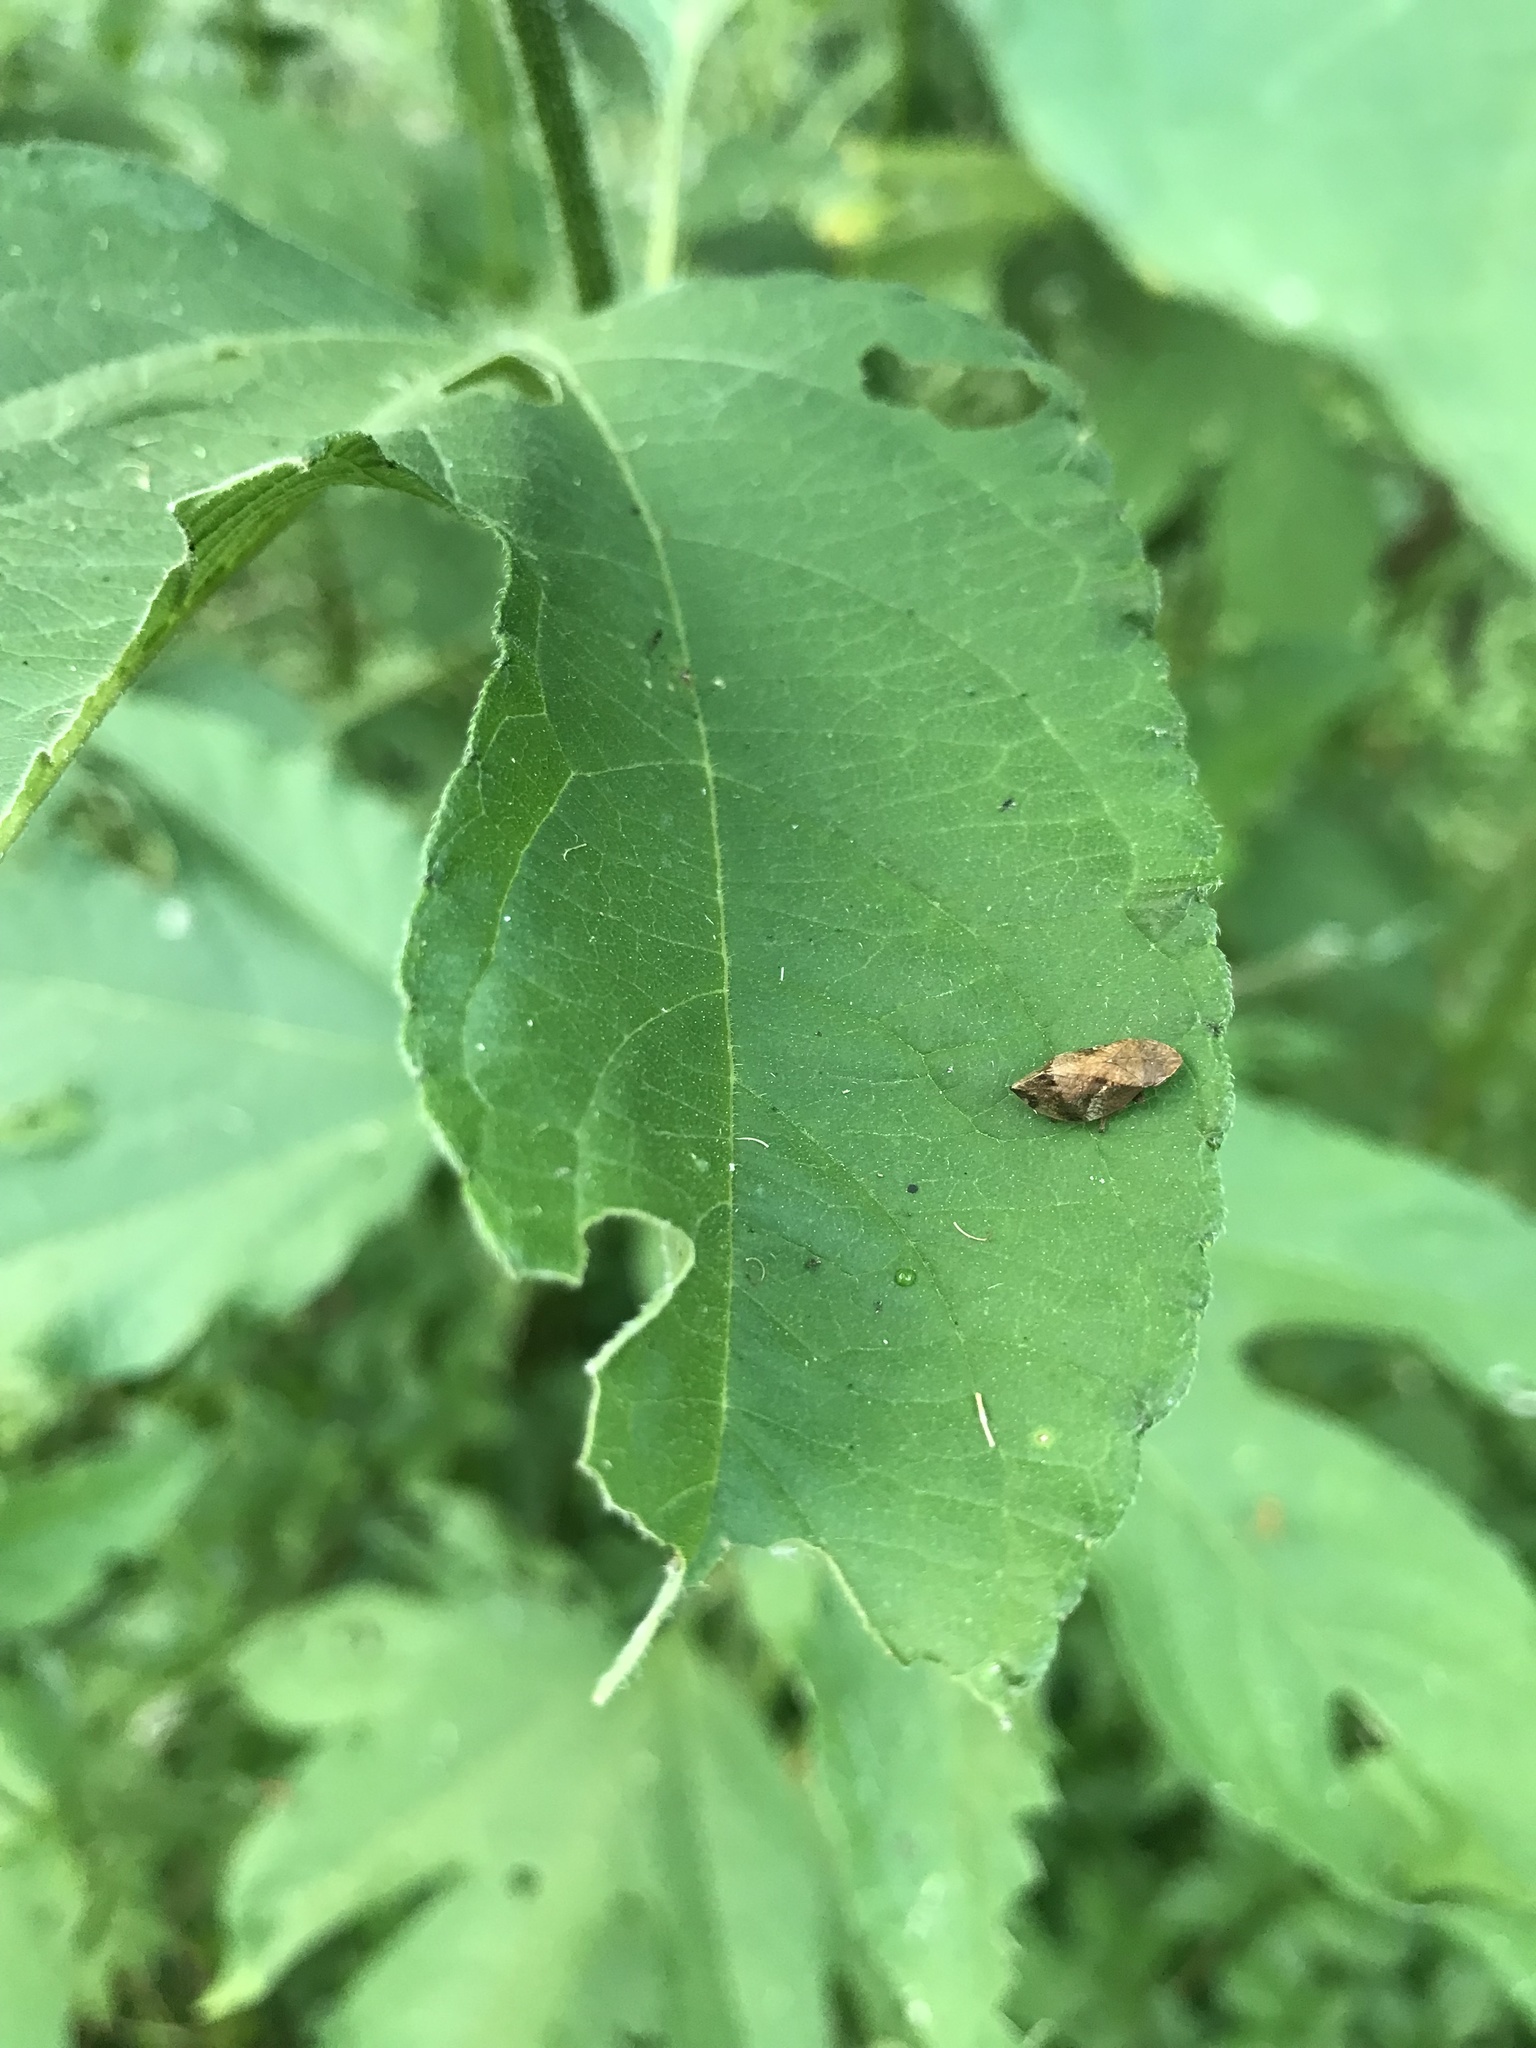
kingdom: Animalia
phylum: Arthropoda
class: Insecta
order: Hemiptera
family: Aphrophoridae
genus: Lepyronia
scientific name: Lepyronia quadrangularis
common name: Diamond-backed spittlebug
